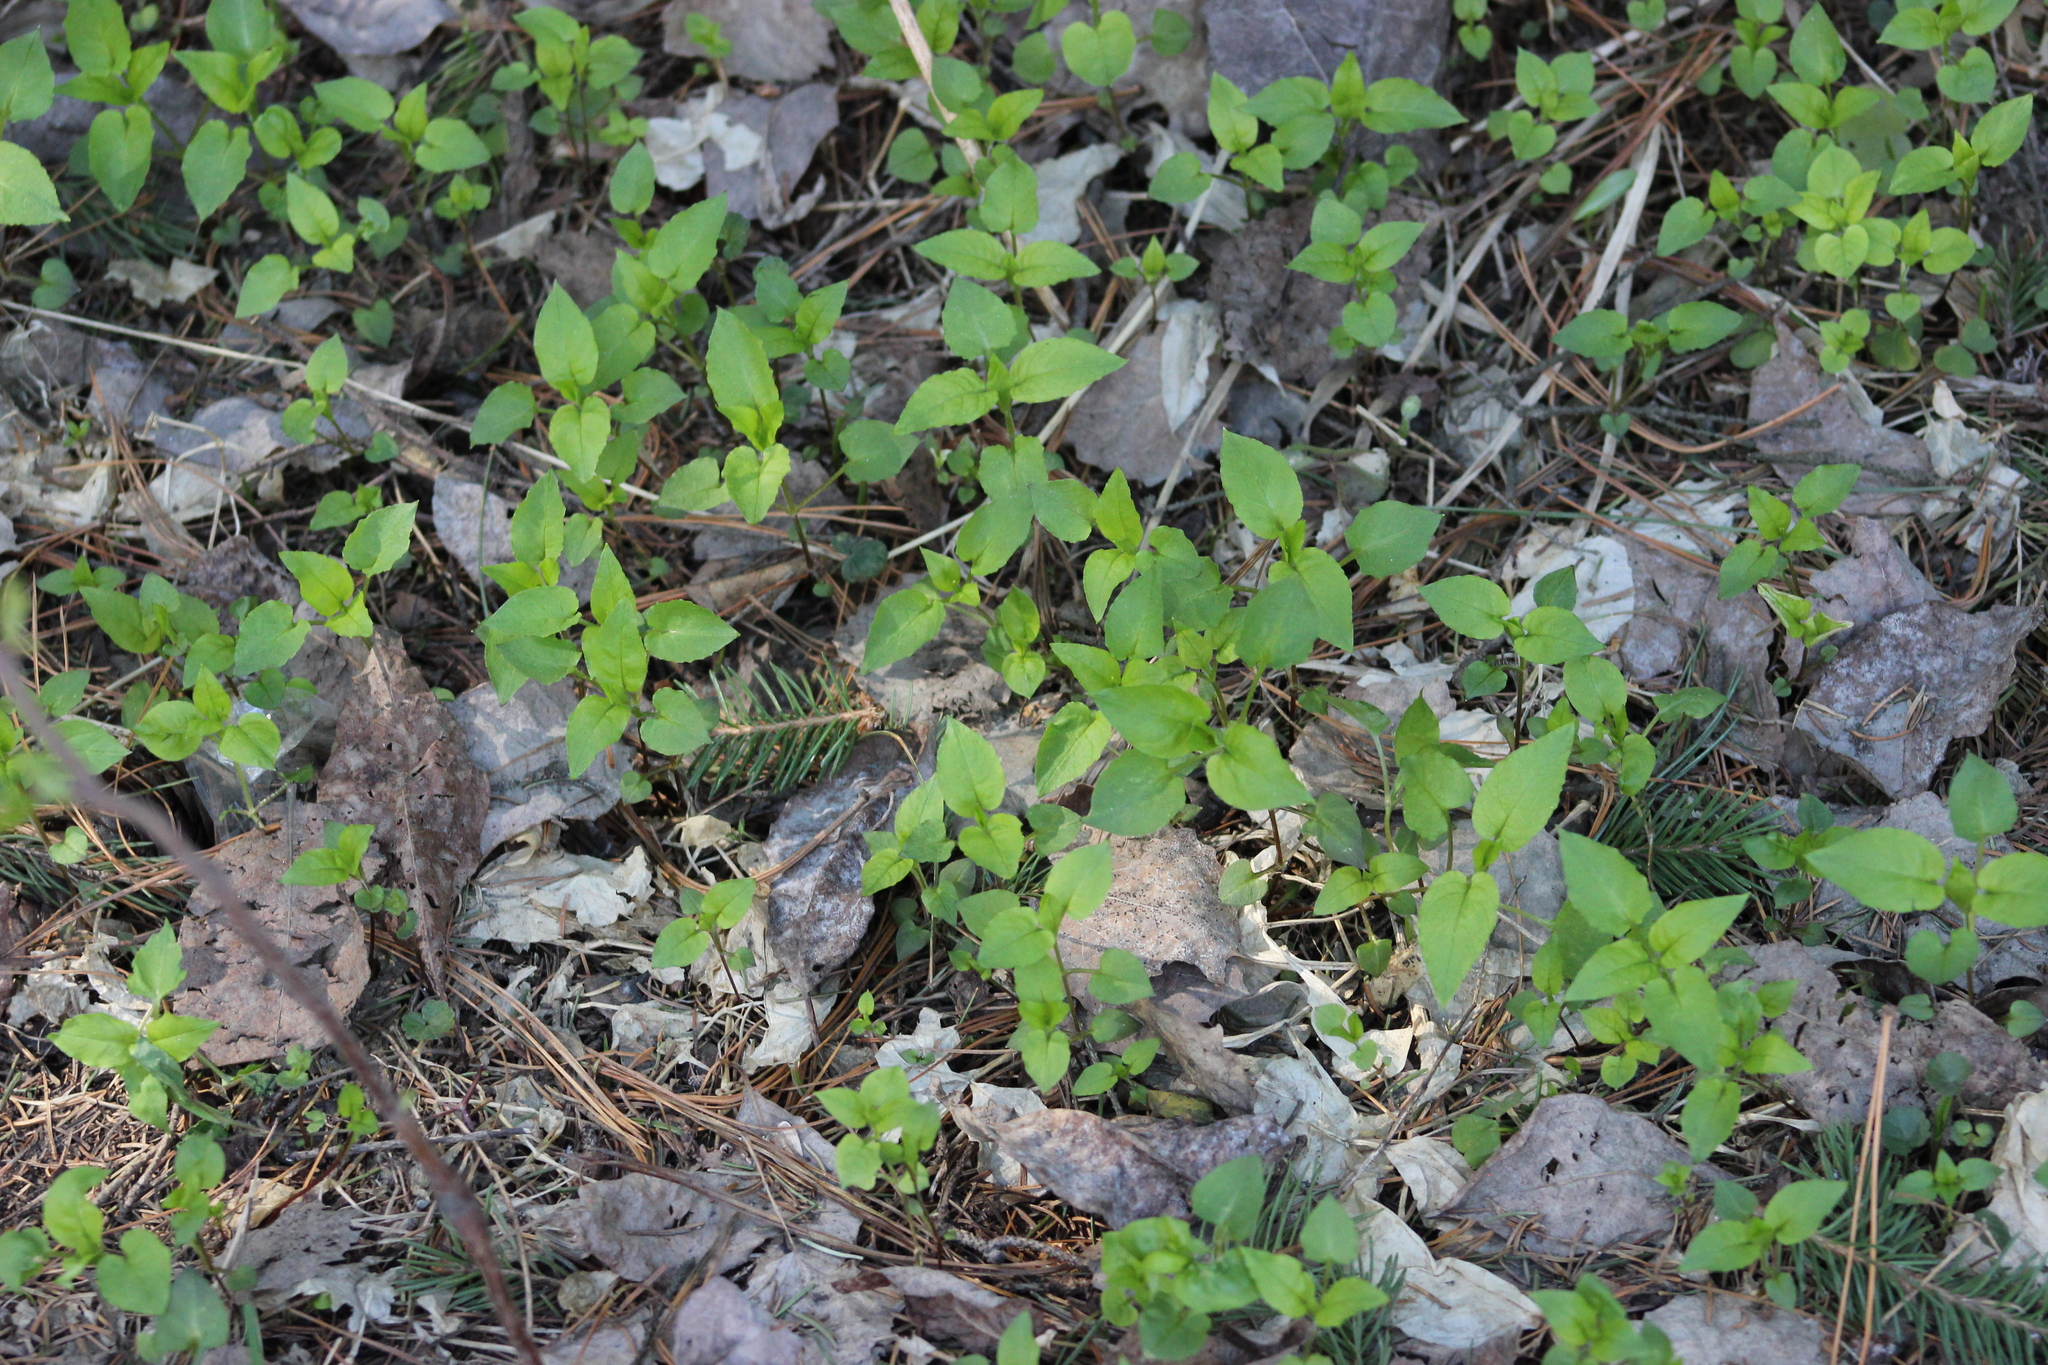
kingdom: Plantae
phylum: Tracheophyta
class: Magnoliopsida
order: Caryophyllales
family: Caryophyllaceae
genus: Stellaria
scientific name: Stellaria bungeana
